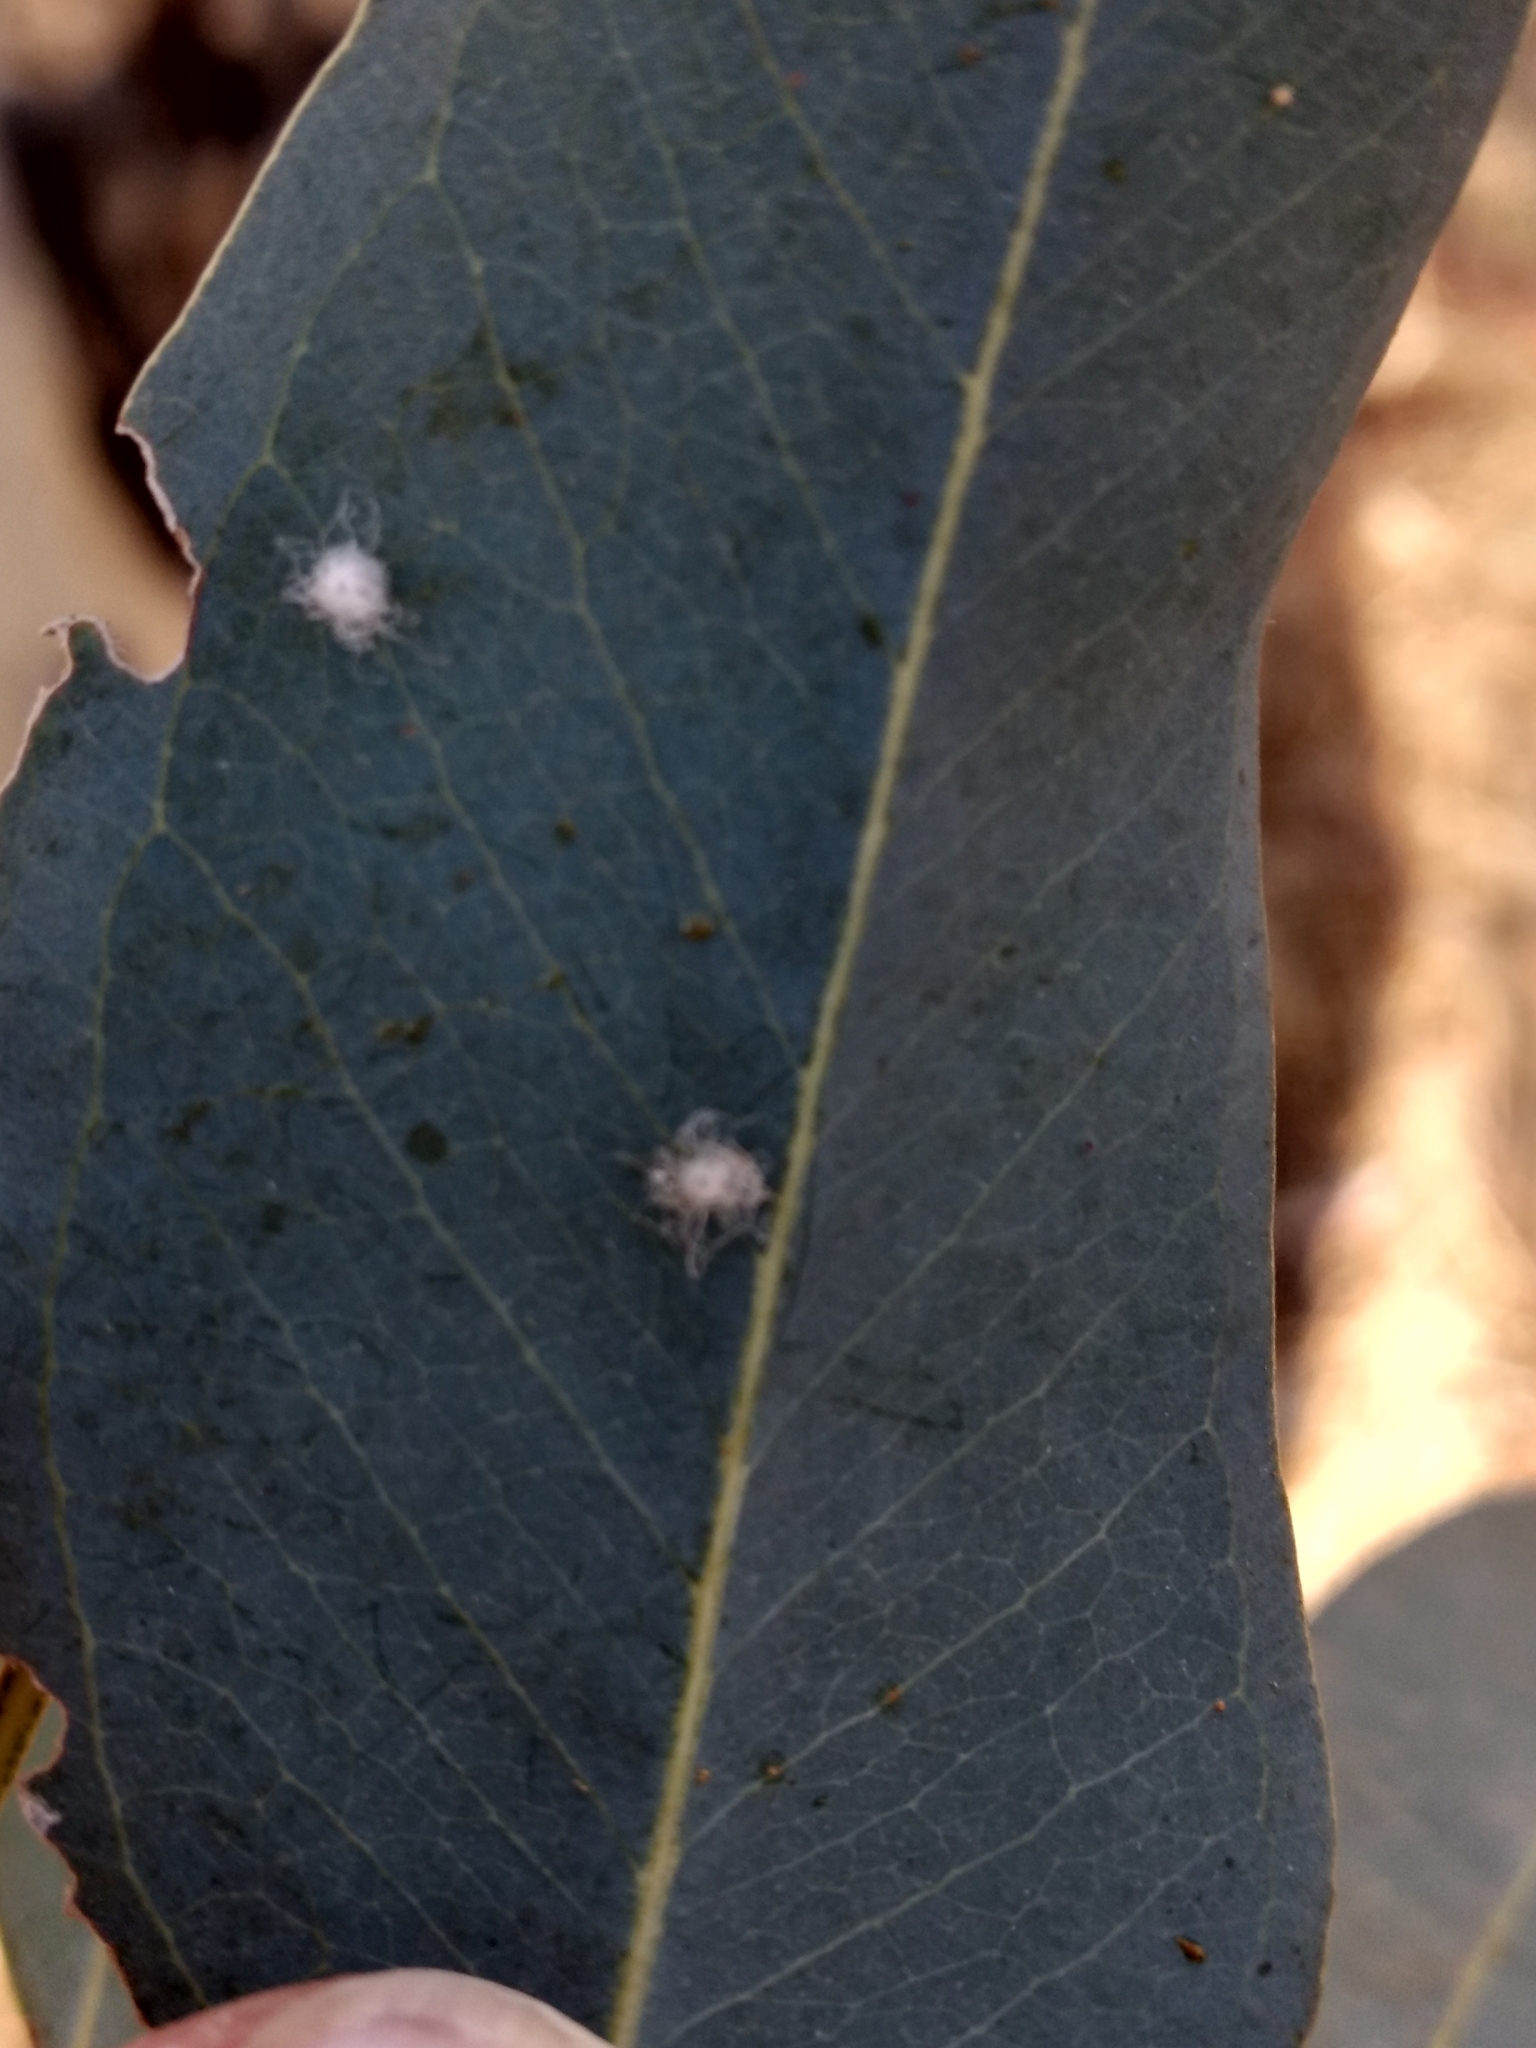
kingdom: Animalia
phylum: Arthropoda
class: Insecta
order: Hemiptera
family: Aphalaridae
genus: Glycaspis
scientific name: Glycaspis brimblecombei
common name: Red gum lerp psyllid
